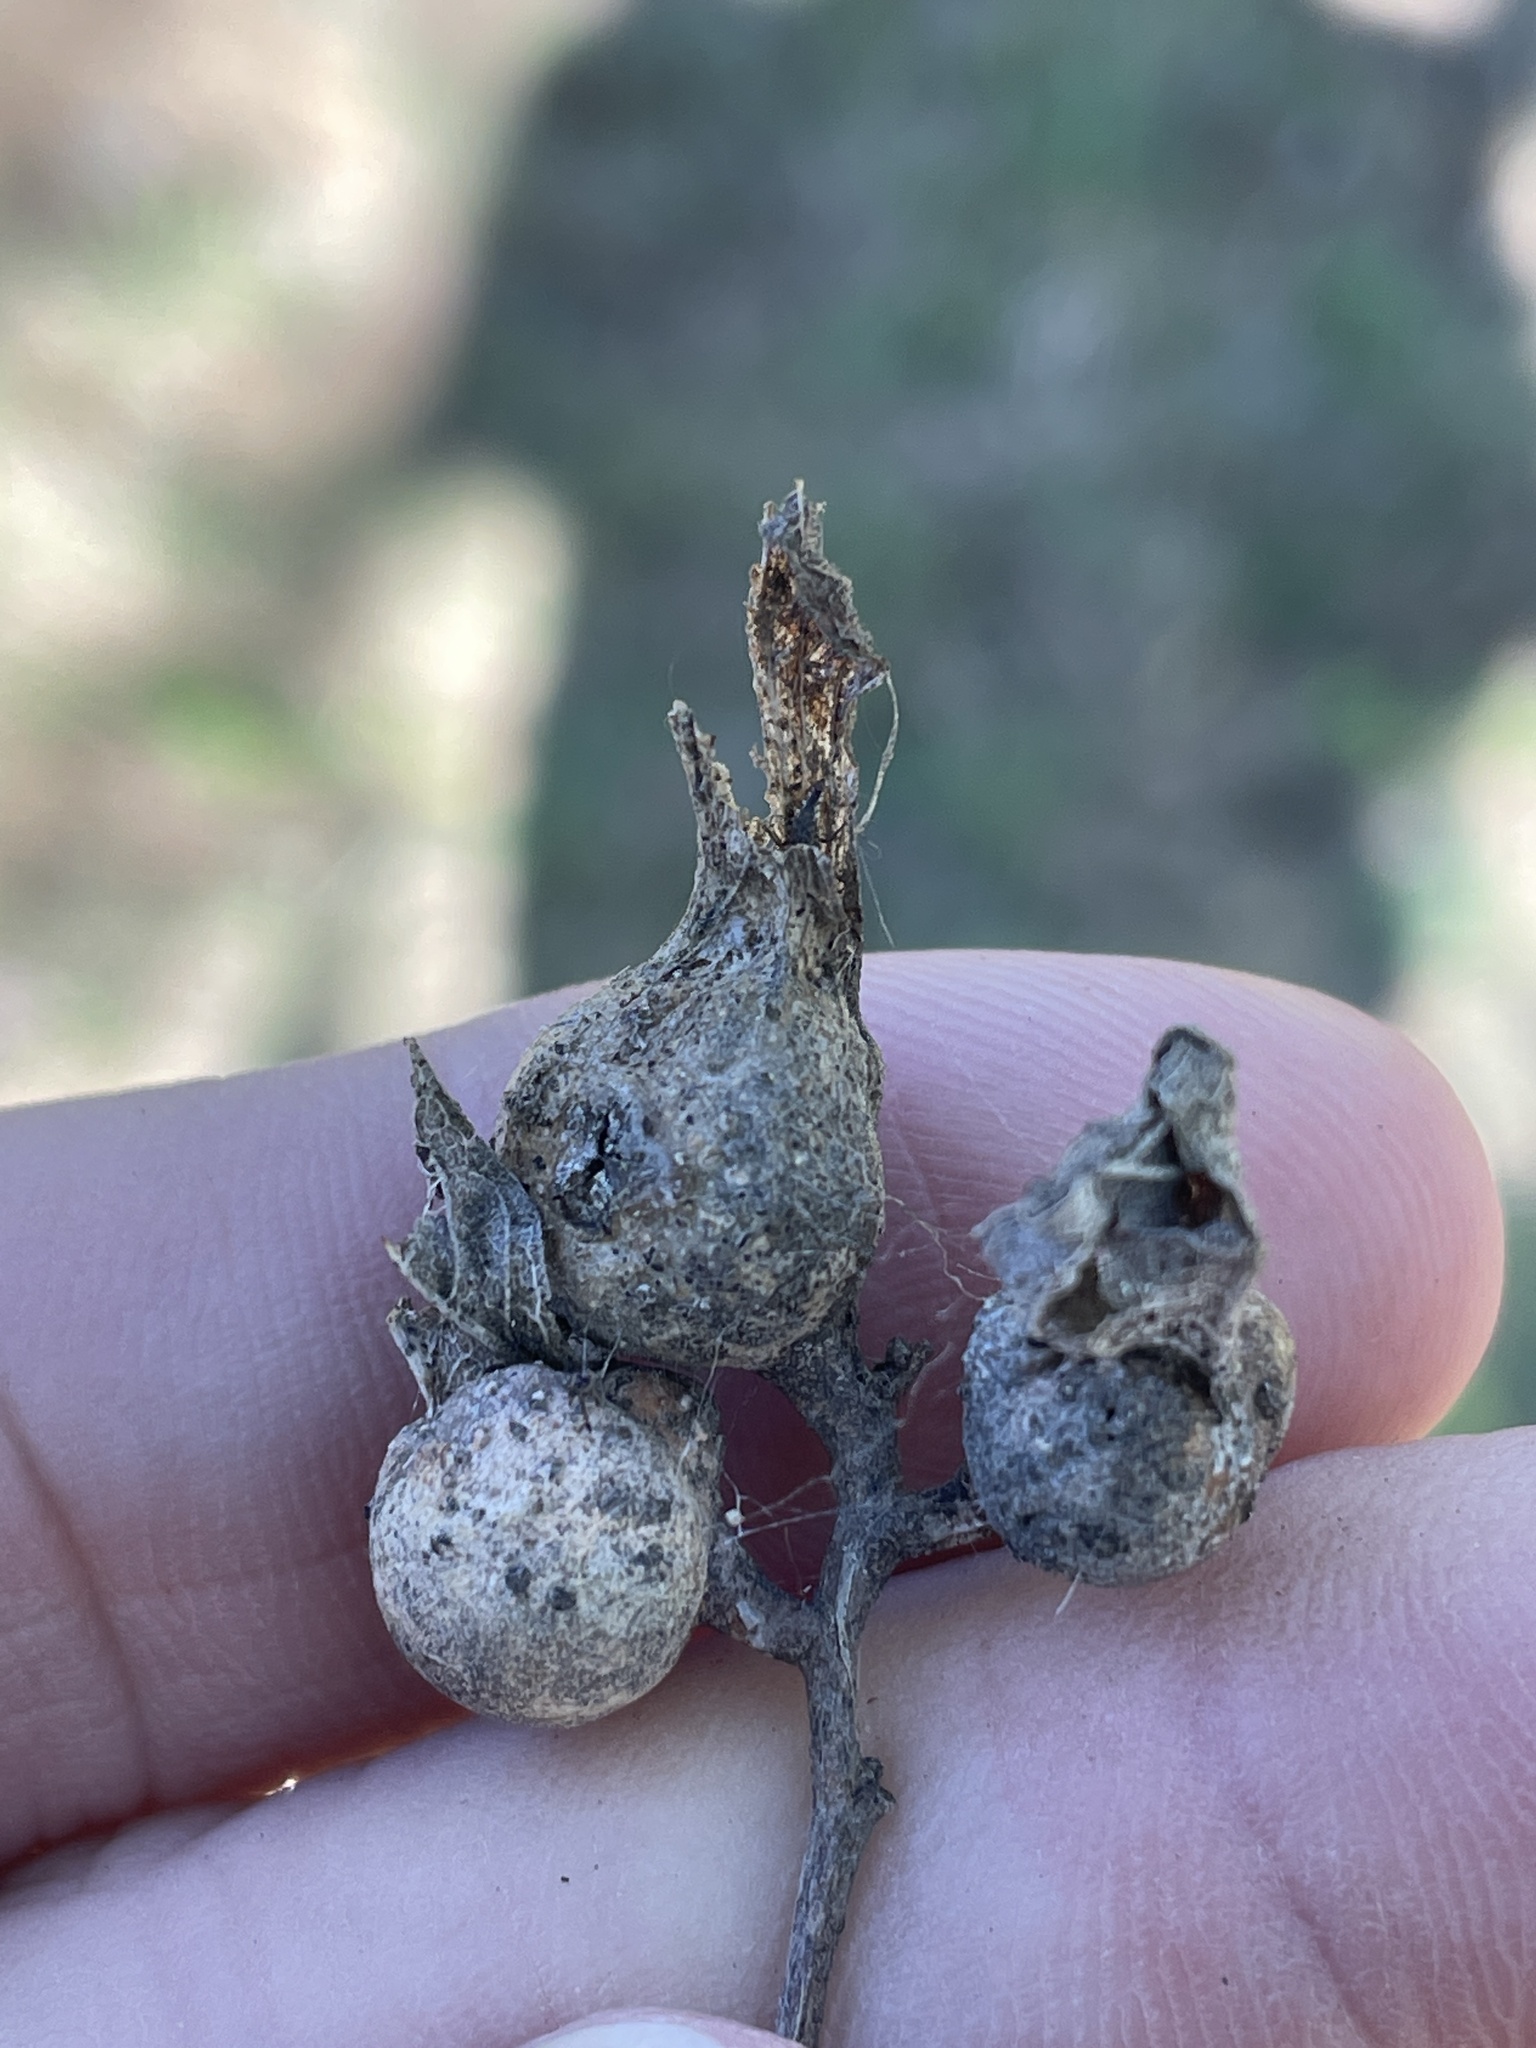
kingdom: Animalia
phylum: Arthropoda
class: Insecta
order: Hemiptera
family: Aphalaridae
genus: Pachypsylla
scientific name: Pachypsylla venusta
